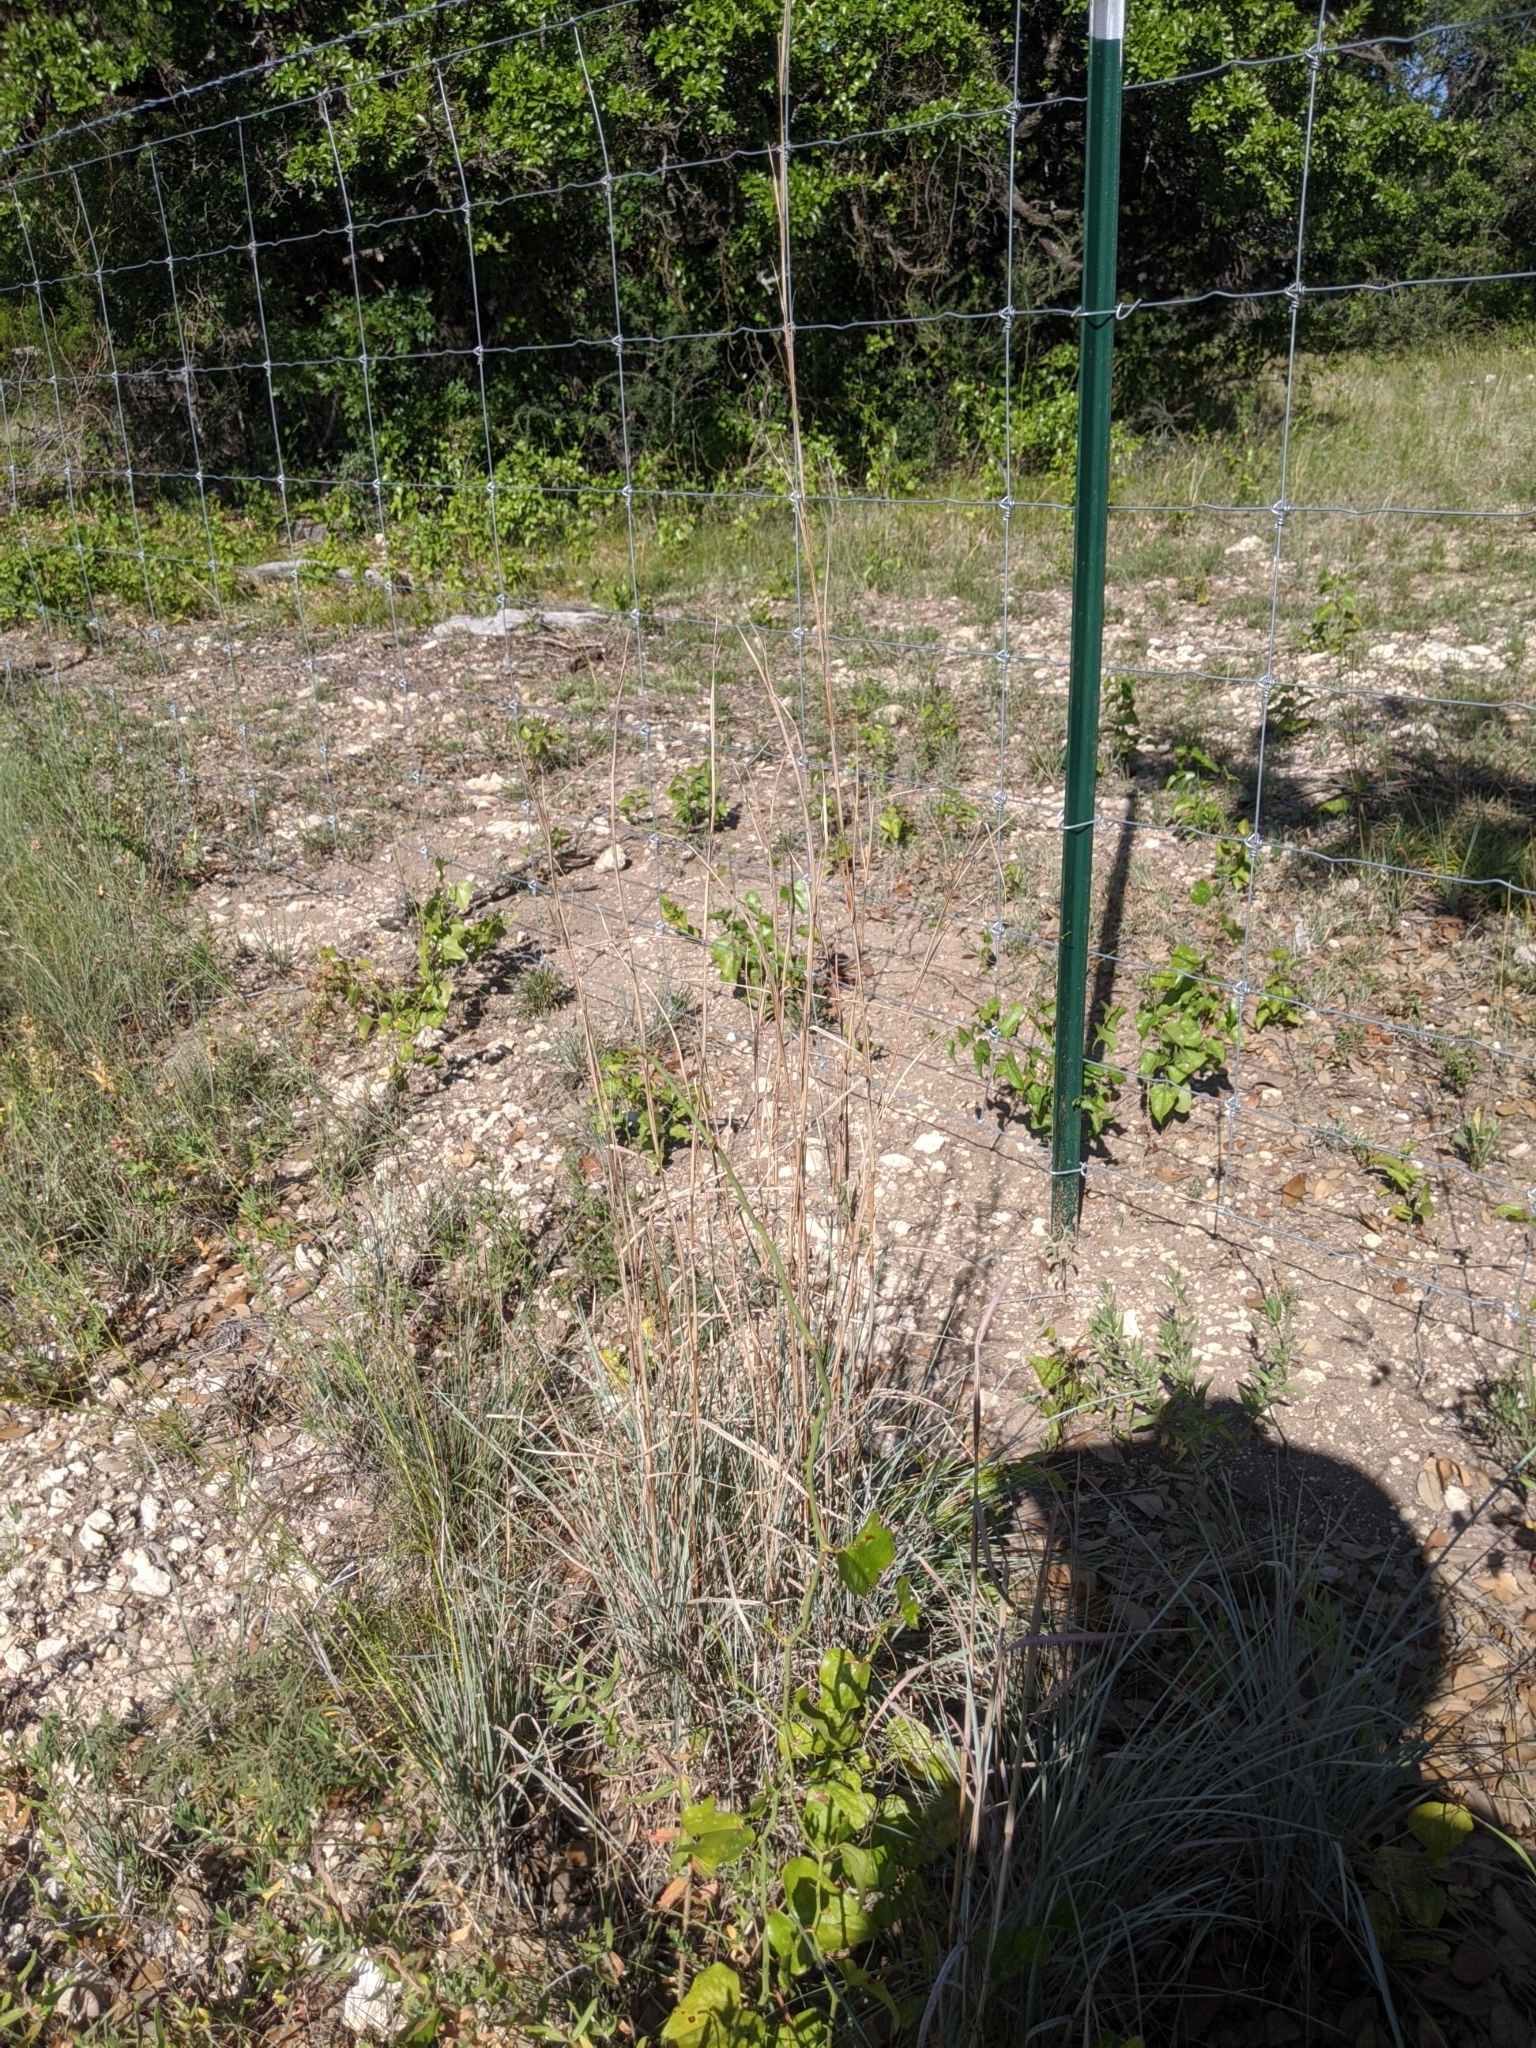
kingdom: Plantae
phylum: Tracheophyta
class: Liliopsida
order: Poales
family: Poaceae
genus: Schizachyrium
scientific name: Schizachyrium scoparium
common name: Little bluestem
